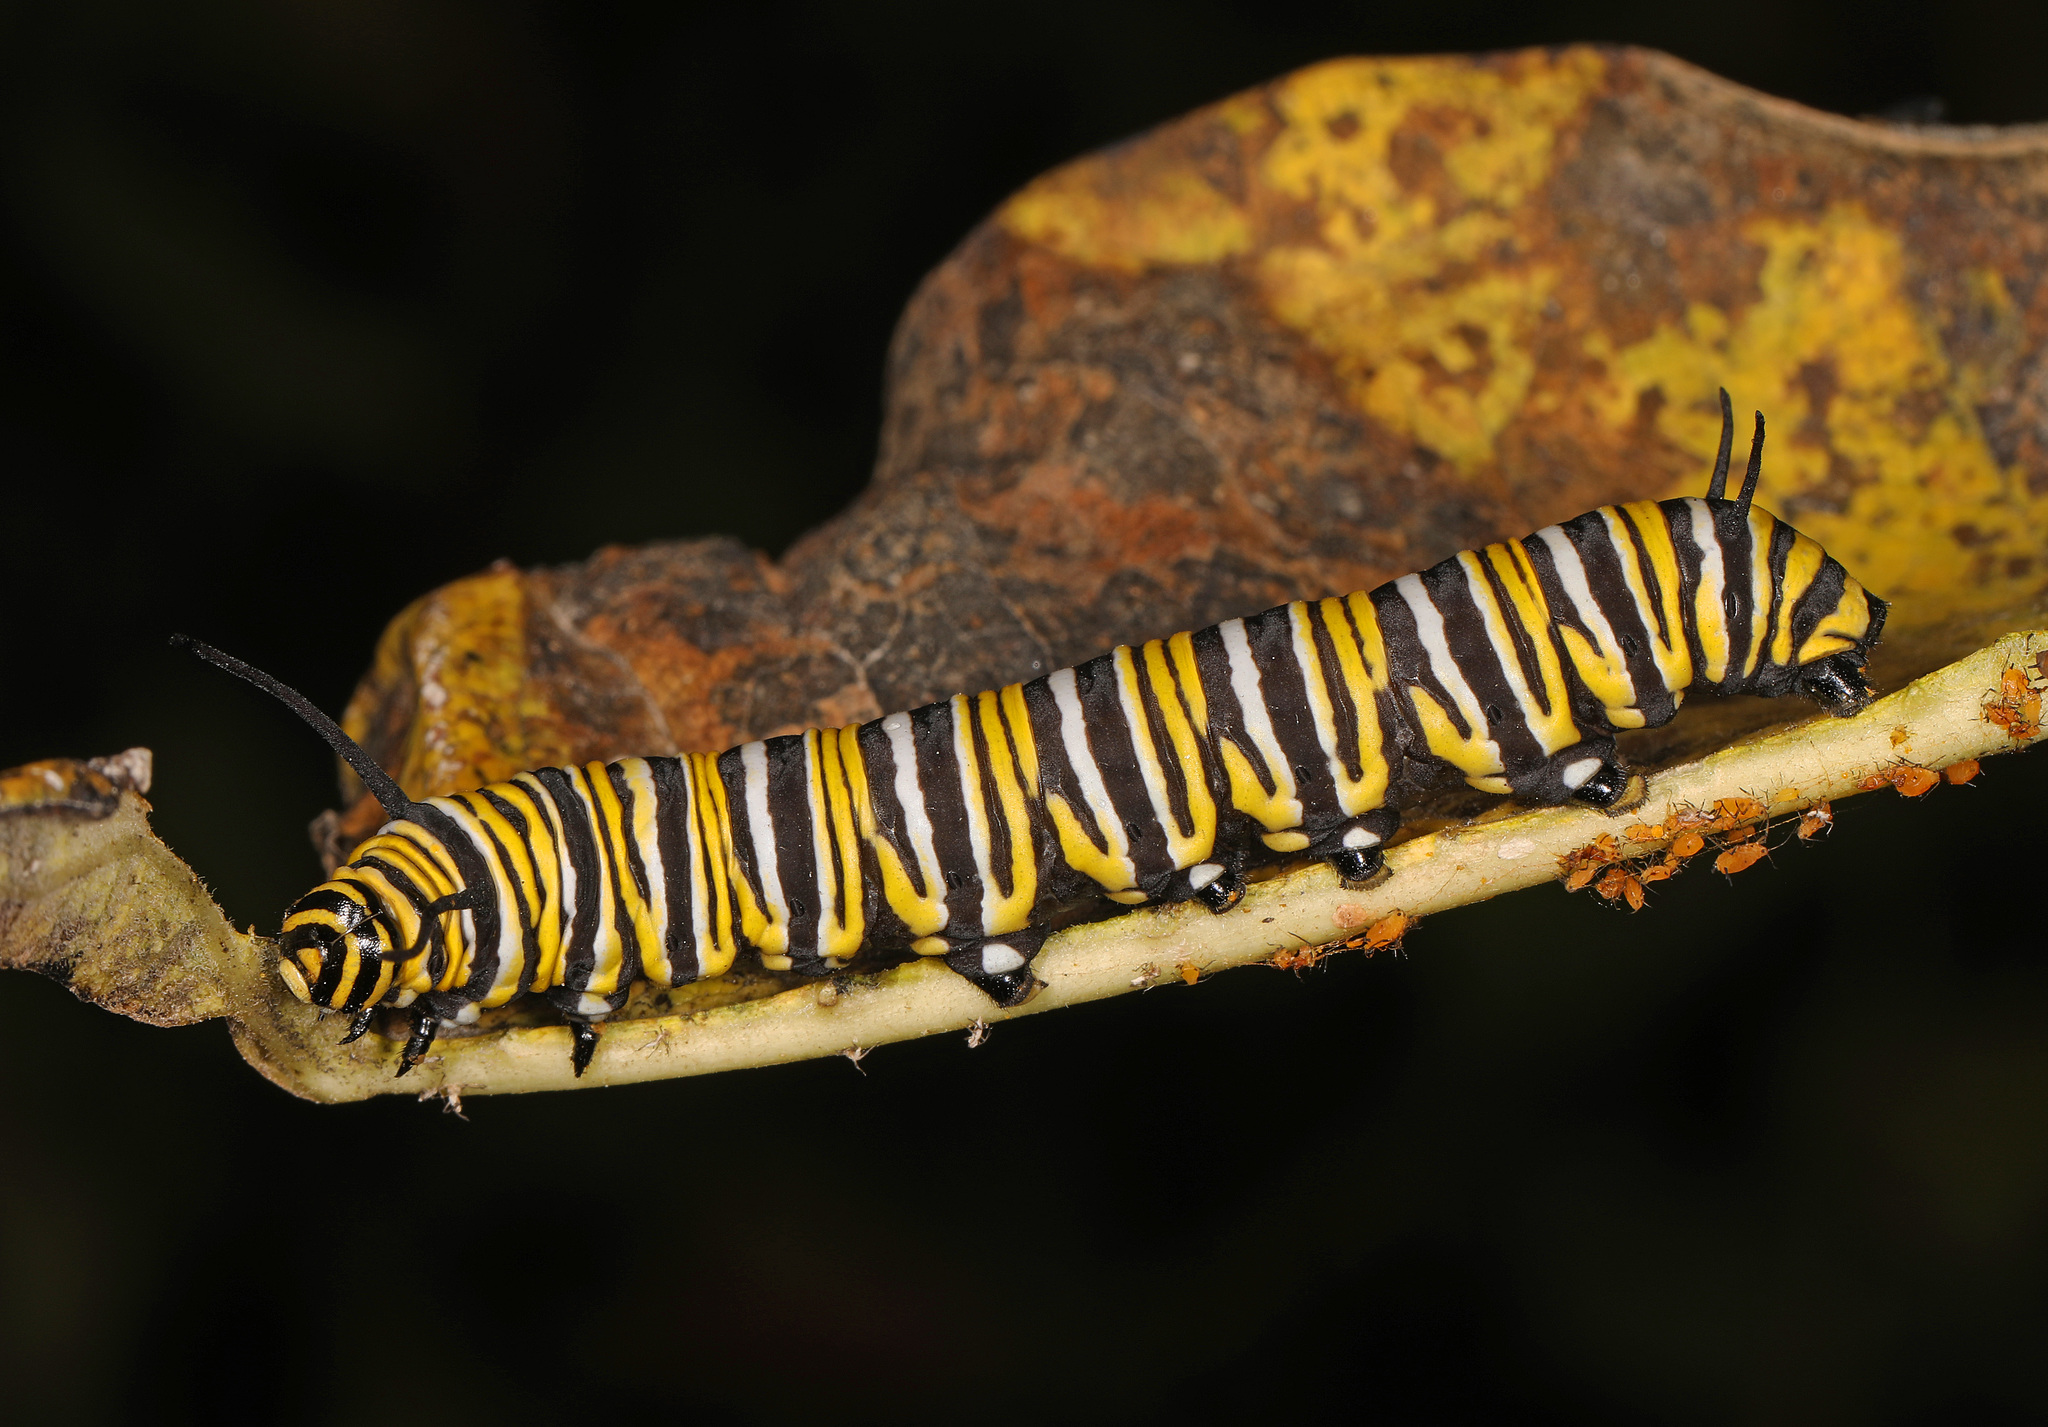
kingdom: Animalia
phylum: Arthropoda
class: Insecta
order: Lepidoptera
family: Nymphalidae
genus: Danaus
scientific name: Danaus plexippus
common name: Monarch
